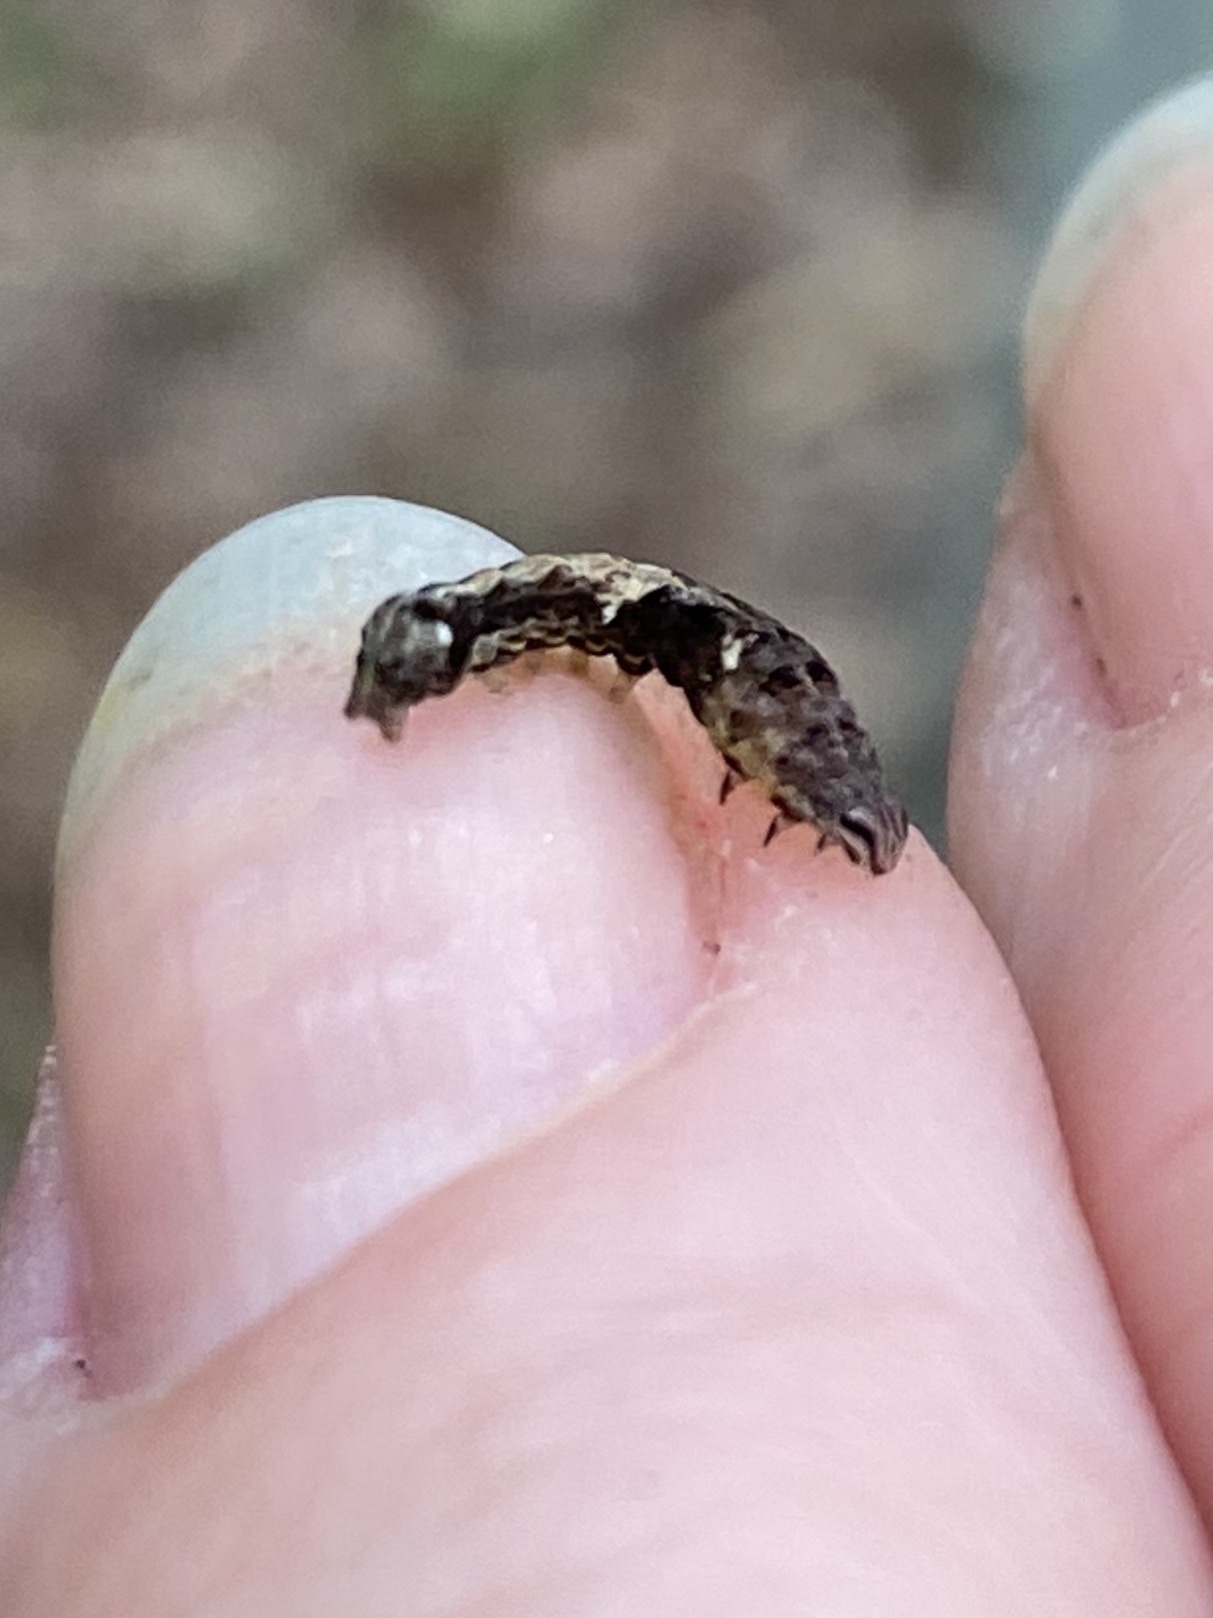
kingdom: Animalia
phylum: Arthropoda
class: Insecta
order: Lepidoptera
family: Noctuidae
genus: Elaphria
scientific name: Elaphria versicolor
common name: Fir harlequin
